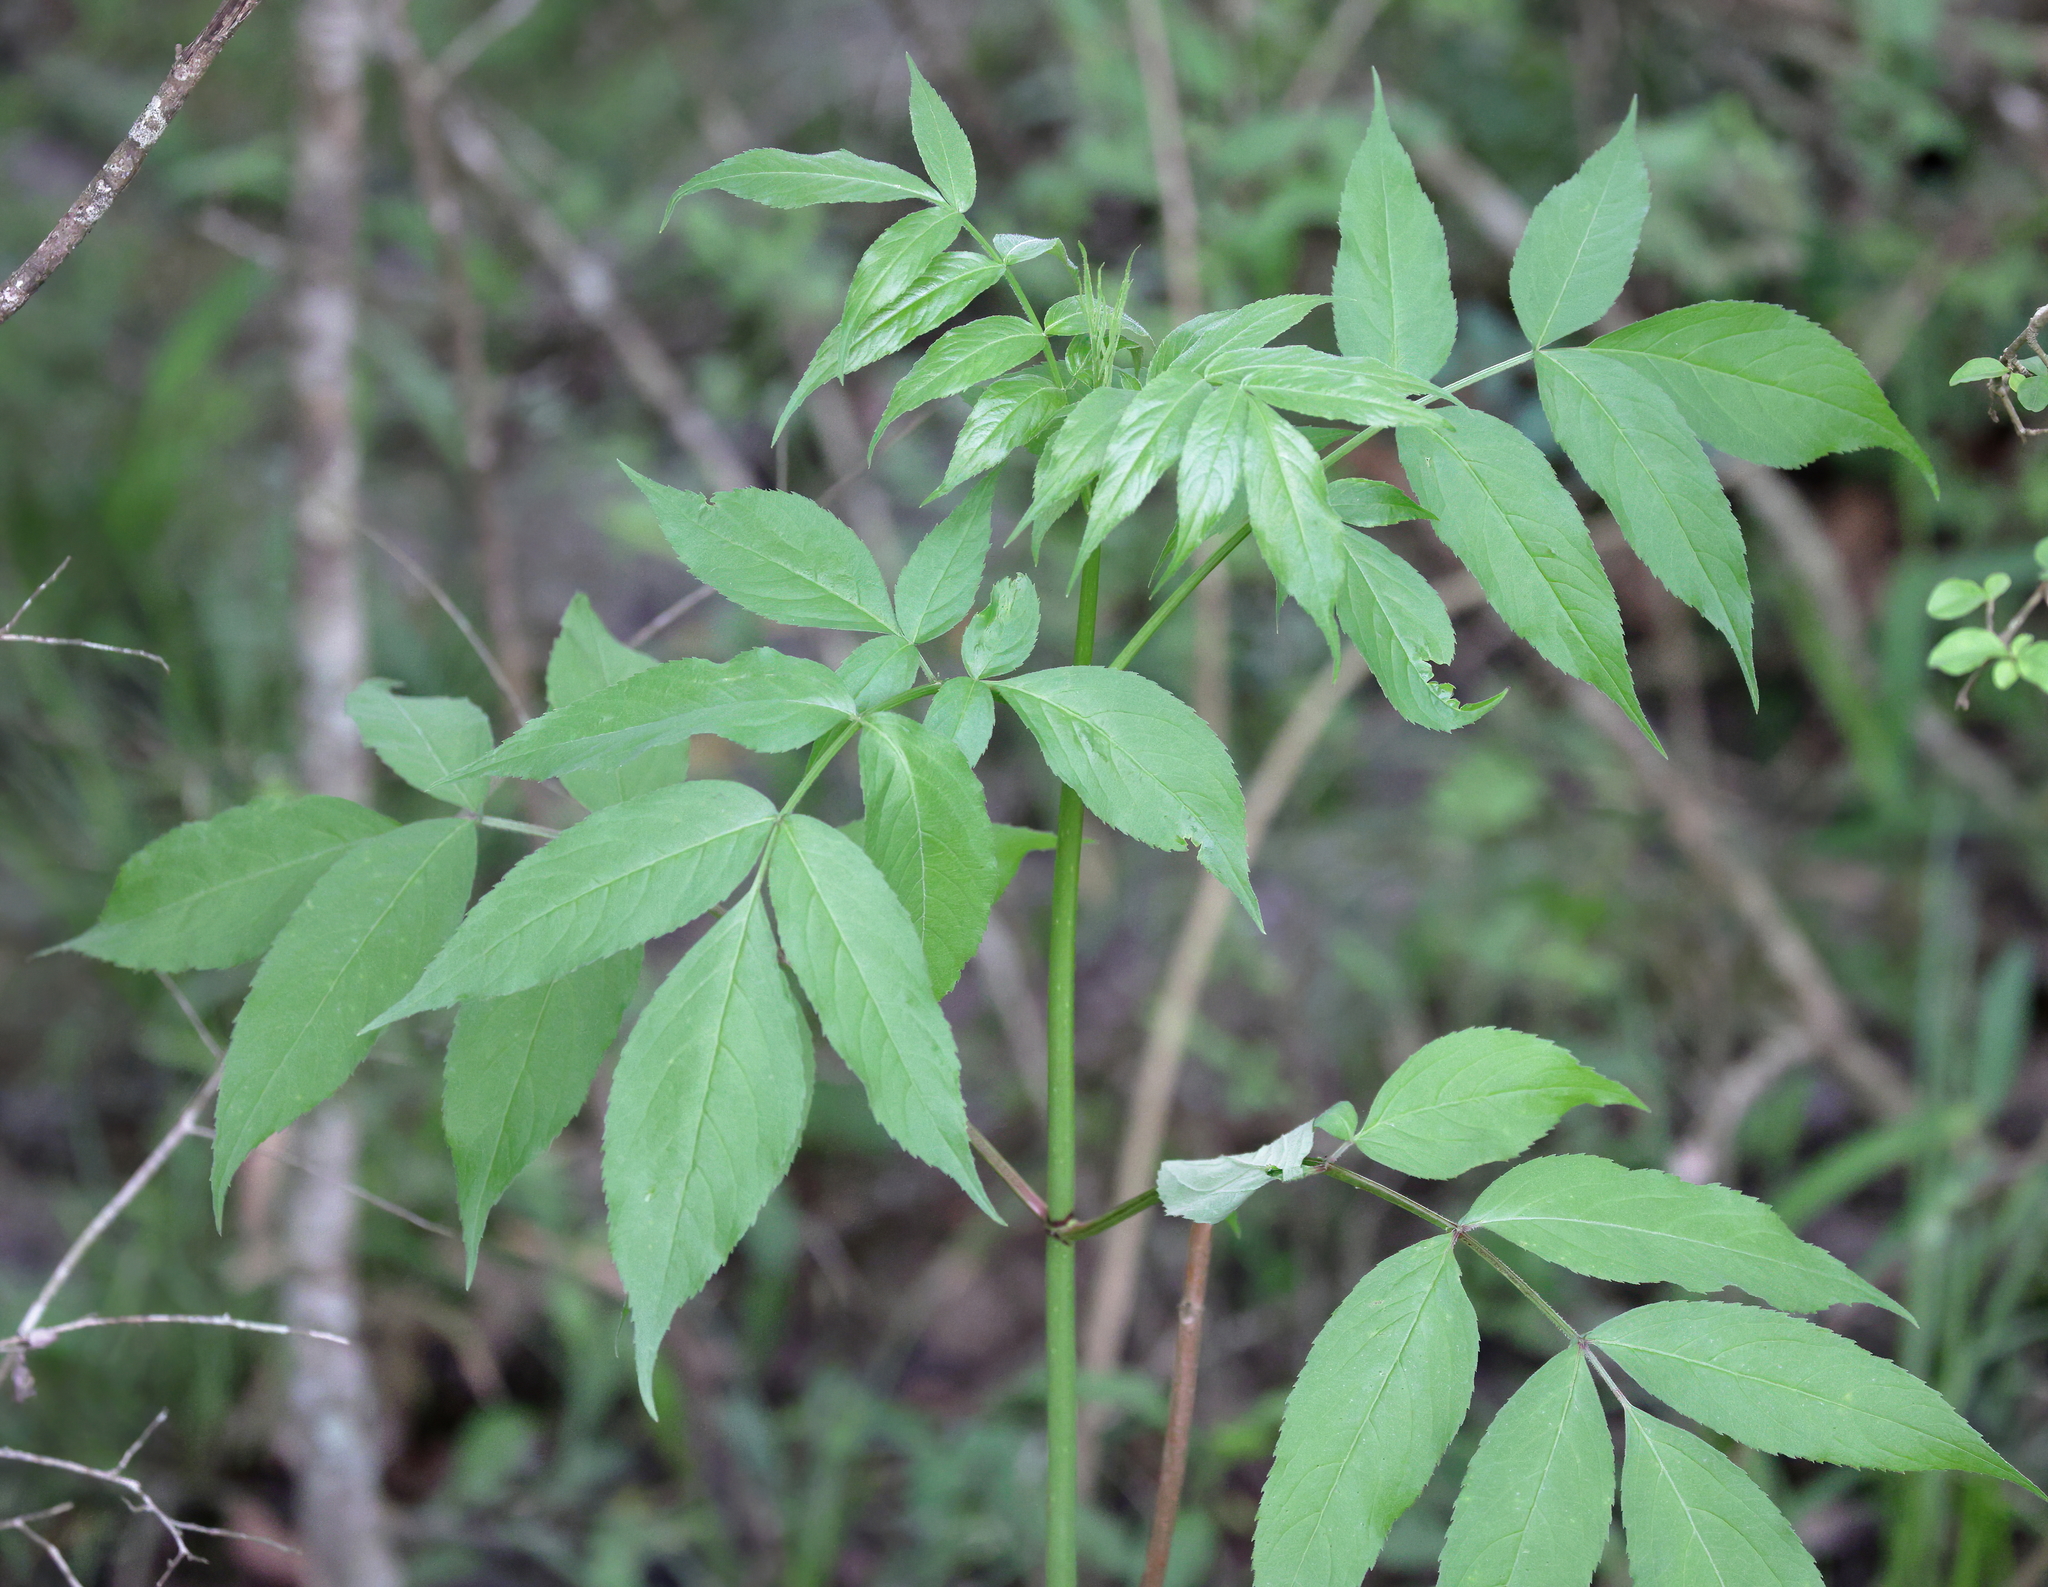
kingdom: Plantae
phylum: Tracheophyta
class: Magnoliopsida
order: Dipsacales
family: Viburnaceae
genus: Sambucus
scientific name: Sambucus canadensis
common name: American elder
